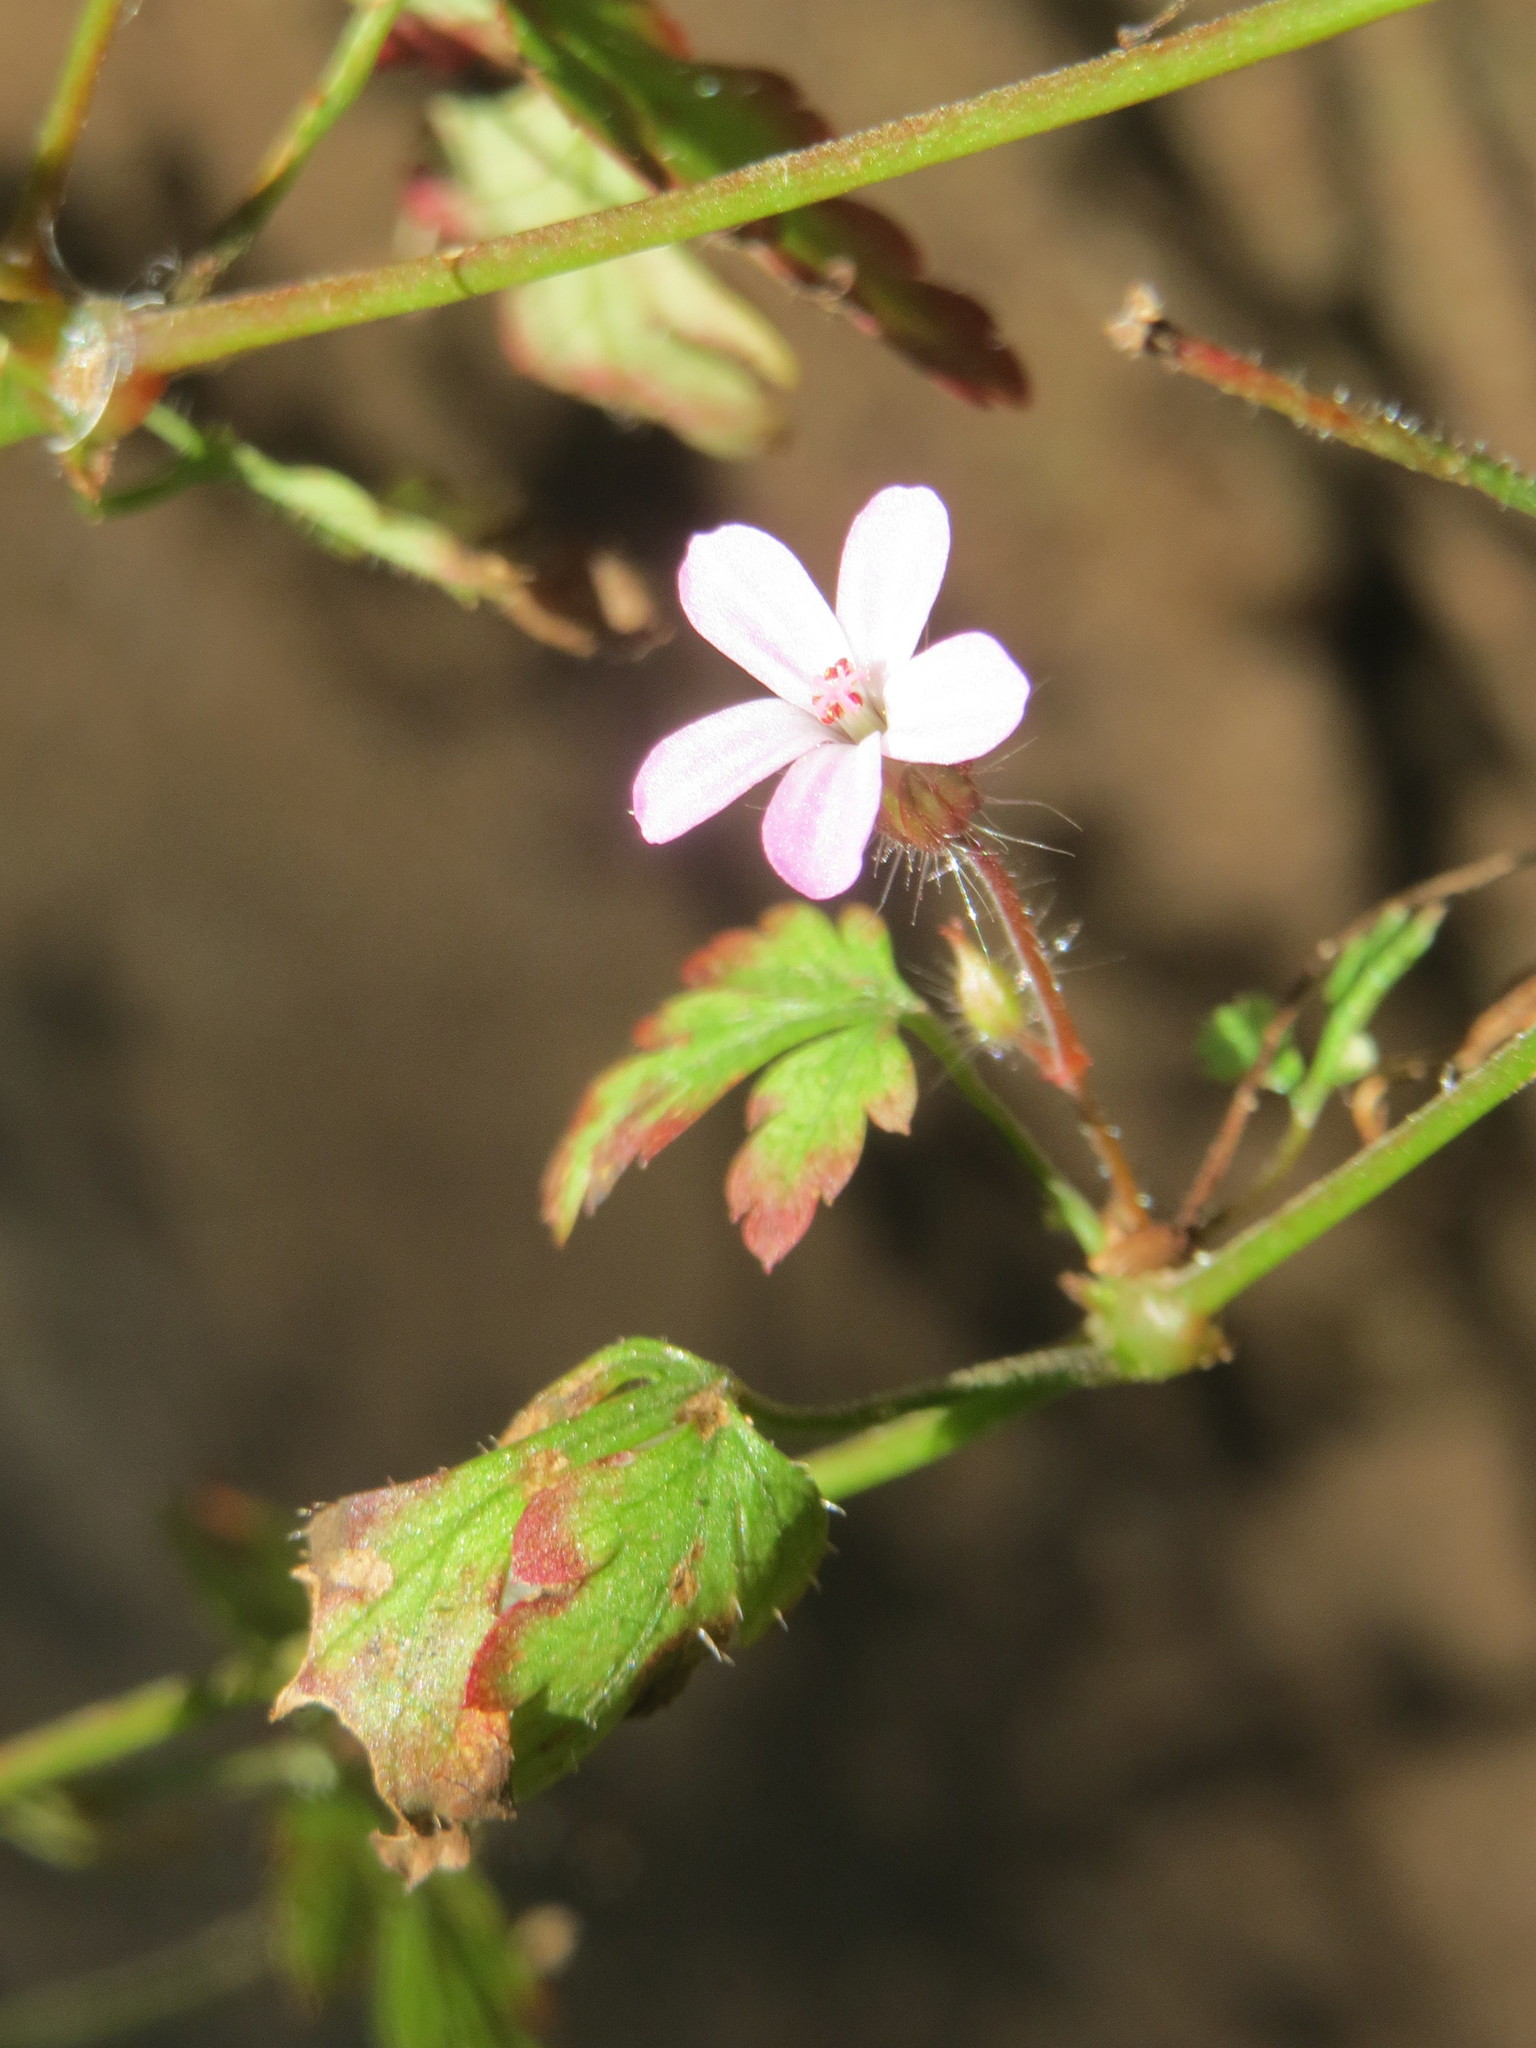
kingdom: Plantae
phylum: Tracheophyta
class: Magnoliopsida
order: Geraniales
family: Geraniaceae
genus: Geranium
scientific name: Geranium robertianum
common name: Herb-robert
